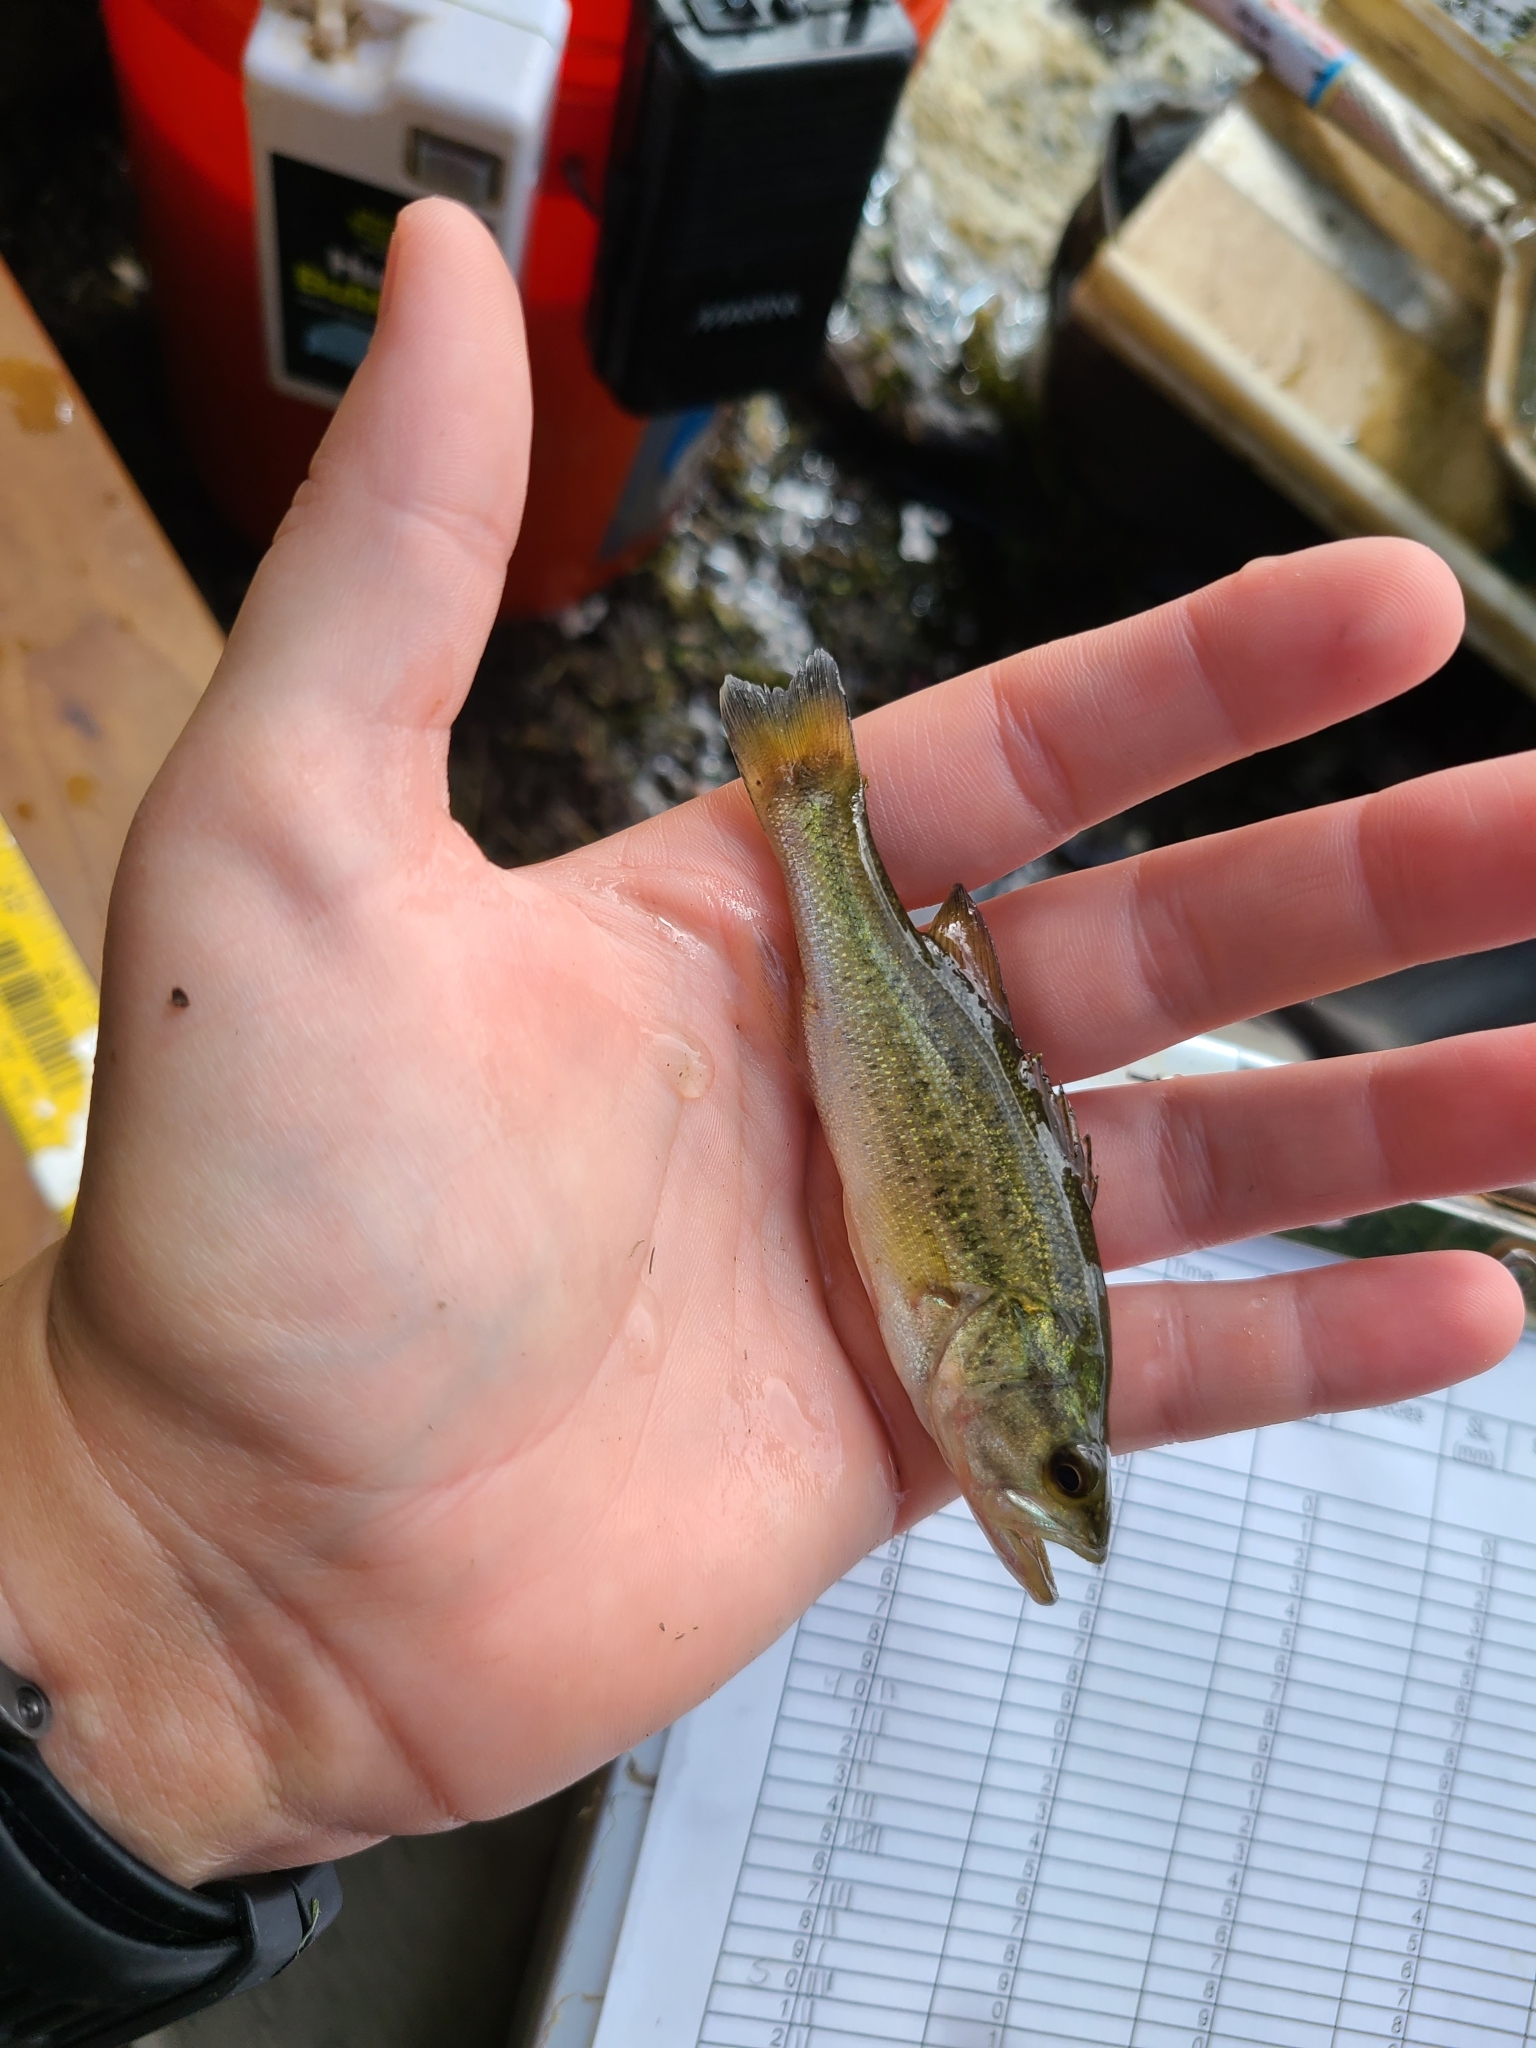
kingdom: Animalia
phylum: Chordata
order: Perciformes
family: Centrarchidae
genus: Micropterus
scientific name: Micropterus
